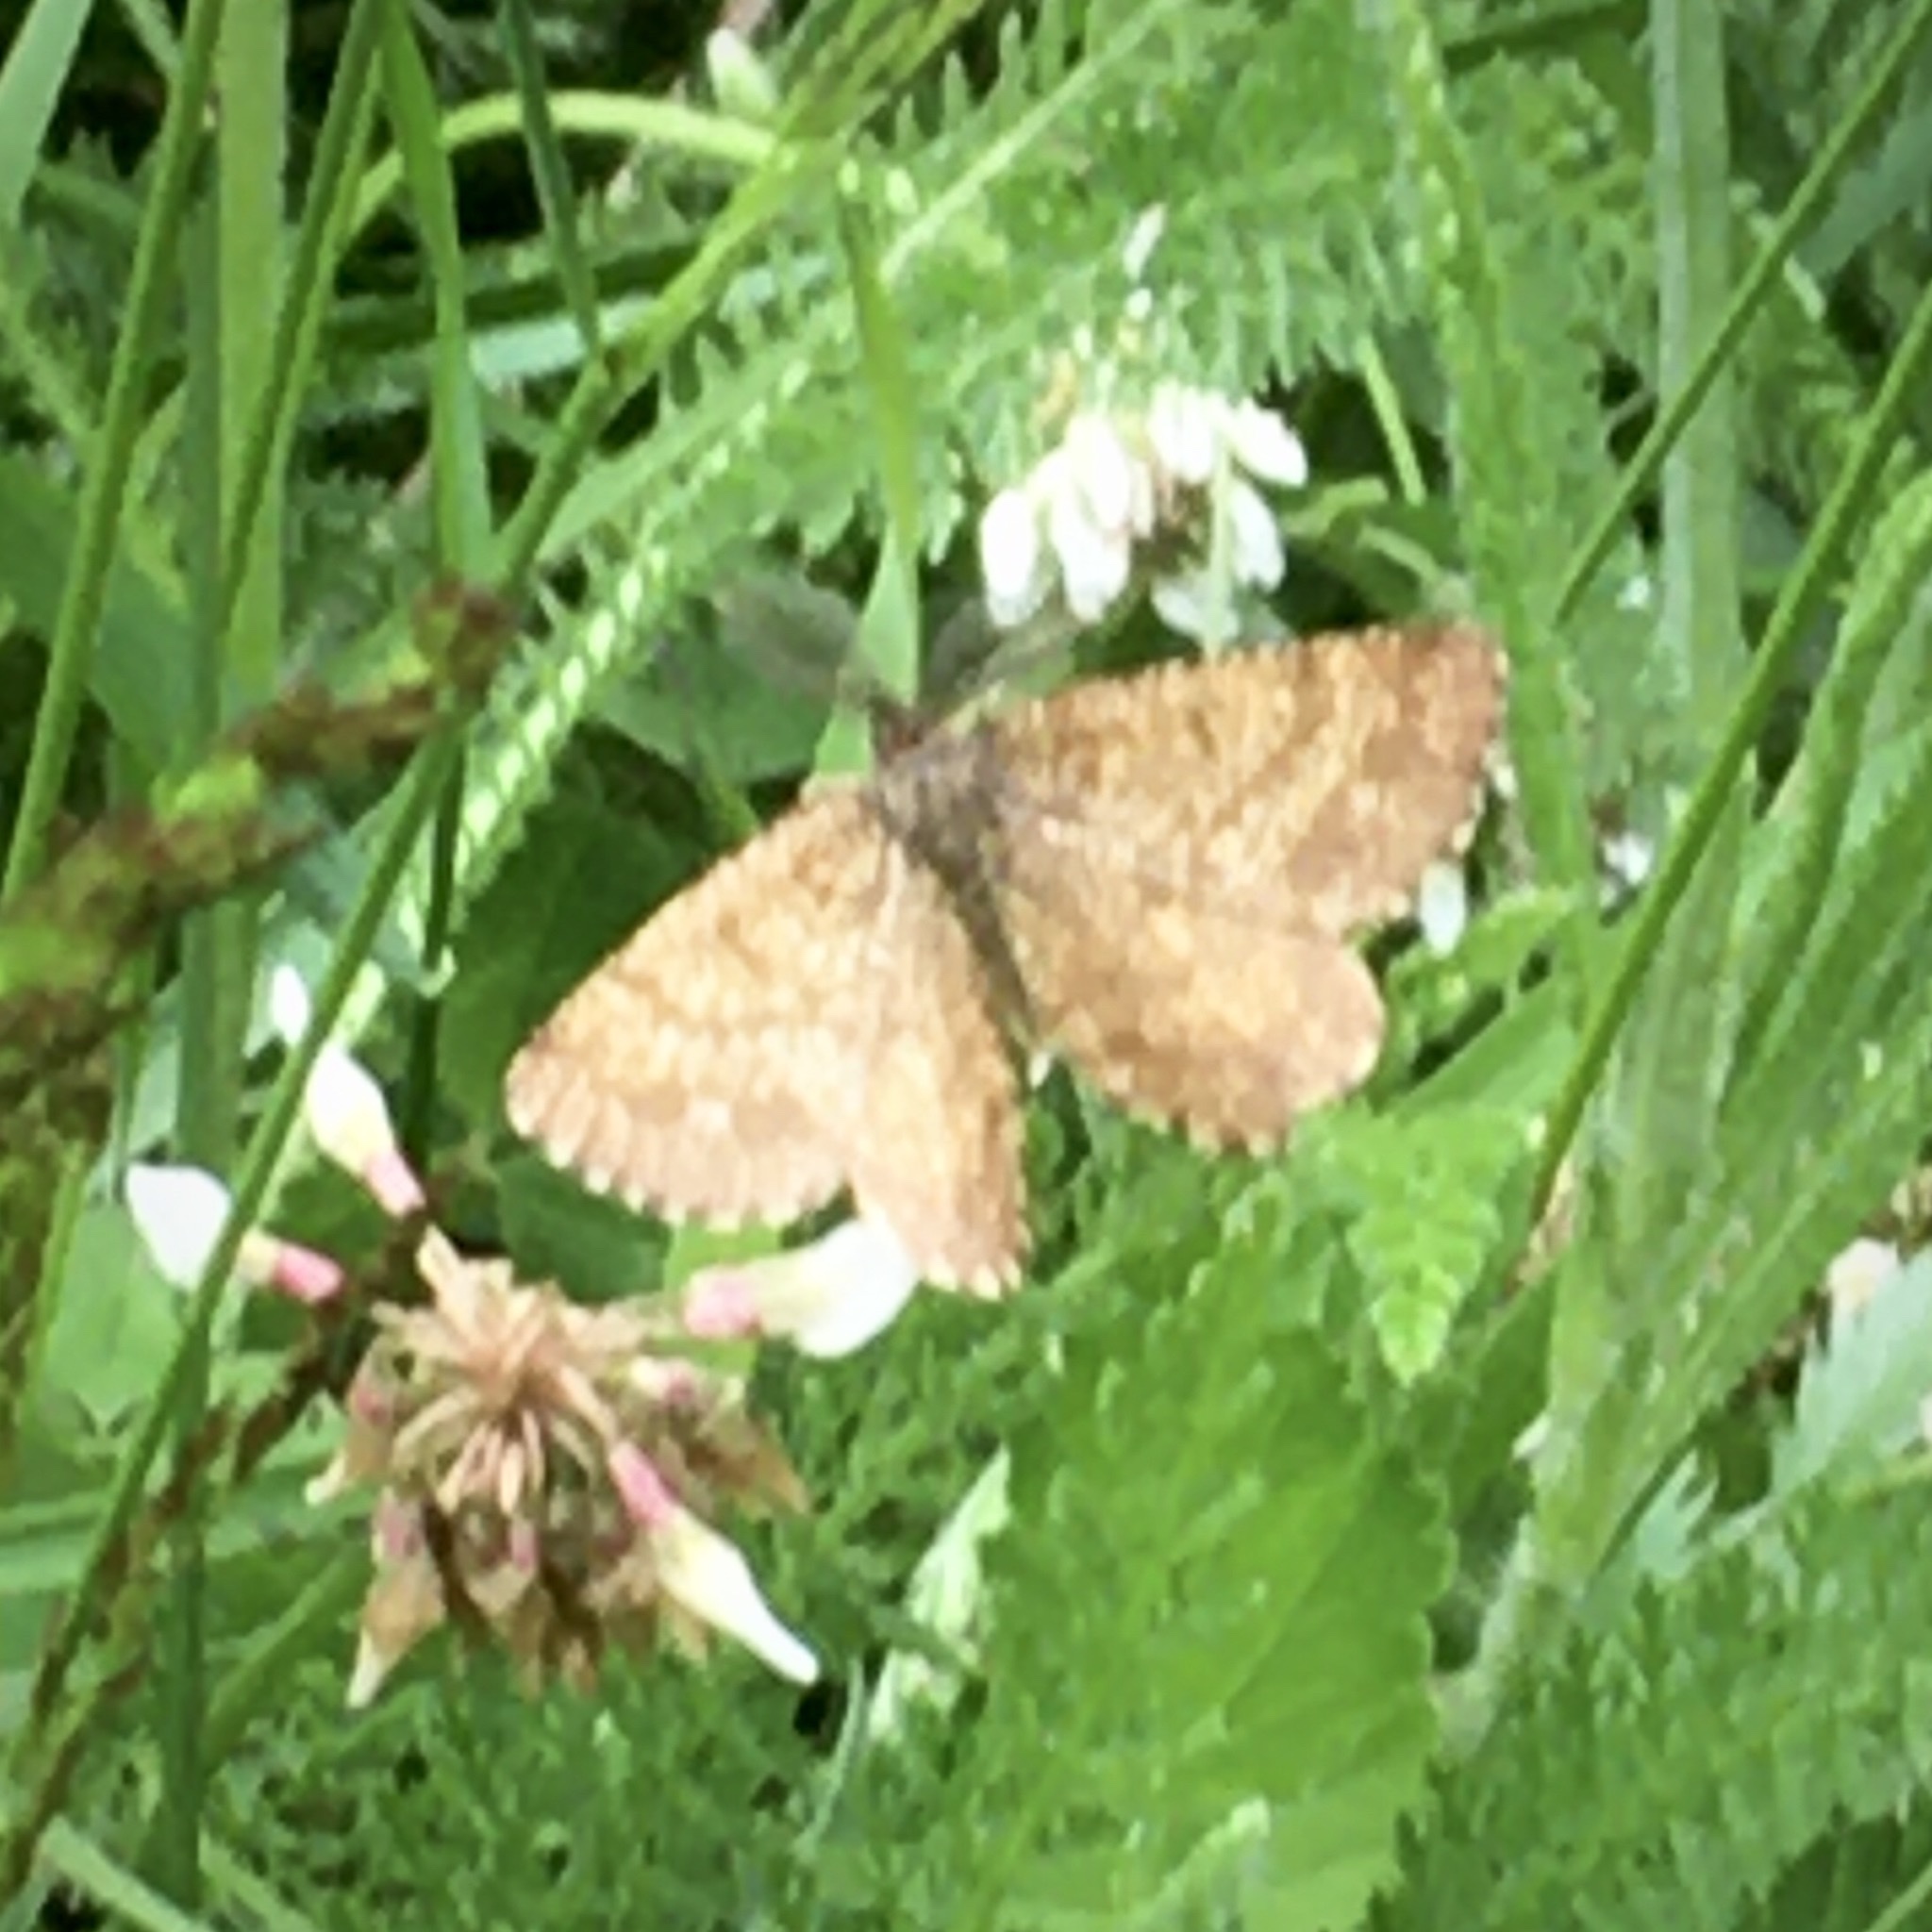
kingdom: Animalia
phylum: Arthropoda
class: Insecta
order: Lepidoptera
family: Geometridae
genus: Ematurga
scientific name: Ematurga atomaria
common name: Common heath
